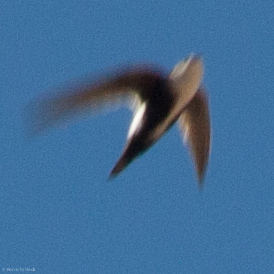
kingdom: Animalia
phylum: Chordata
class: Aves
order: Apodiformes
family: Apodidae
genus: Aeronautes
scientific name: Aeronautes saxatalis
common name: White-throated swift
